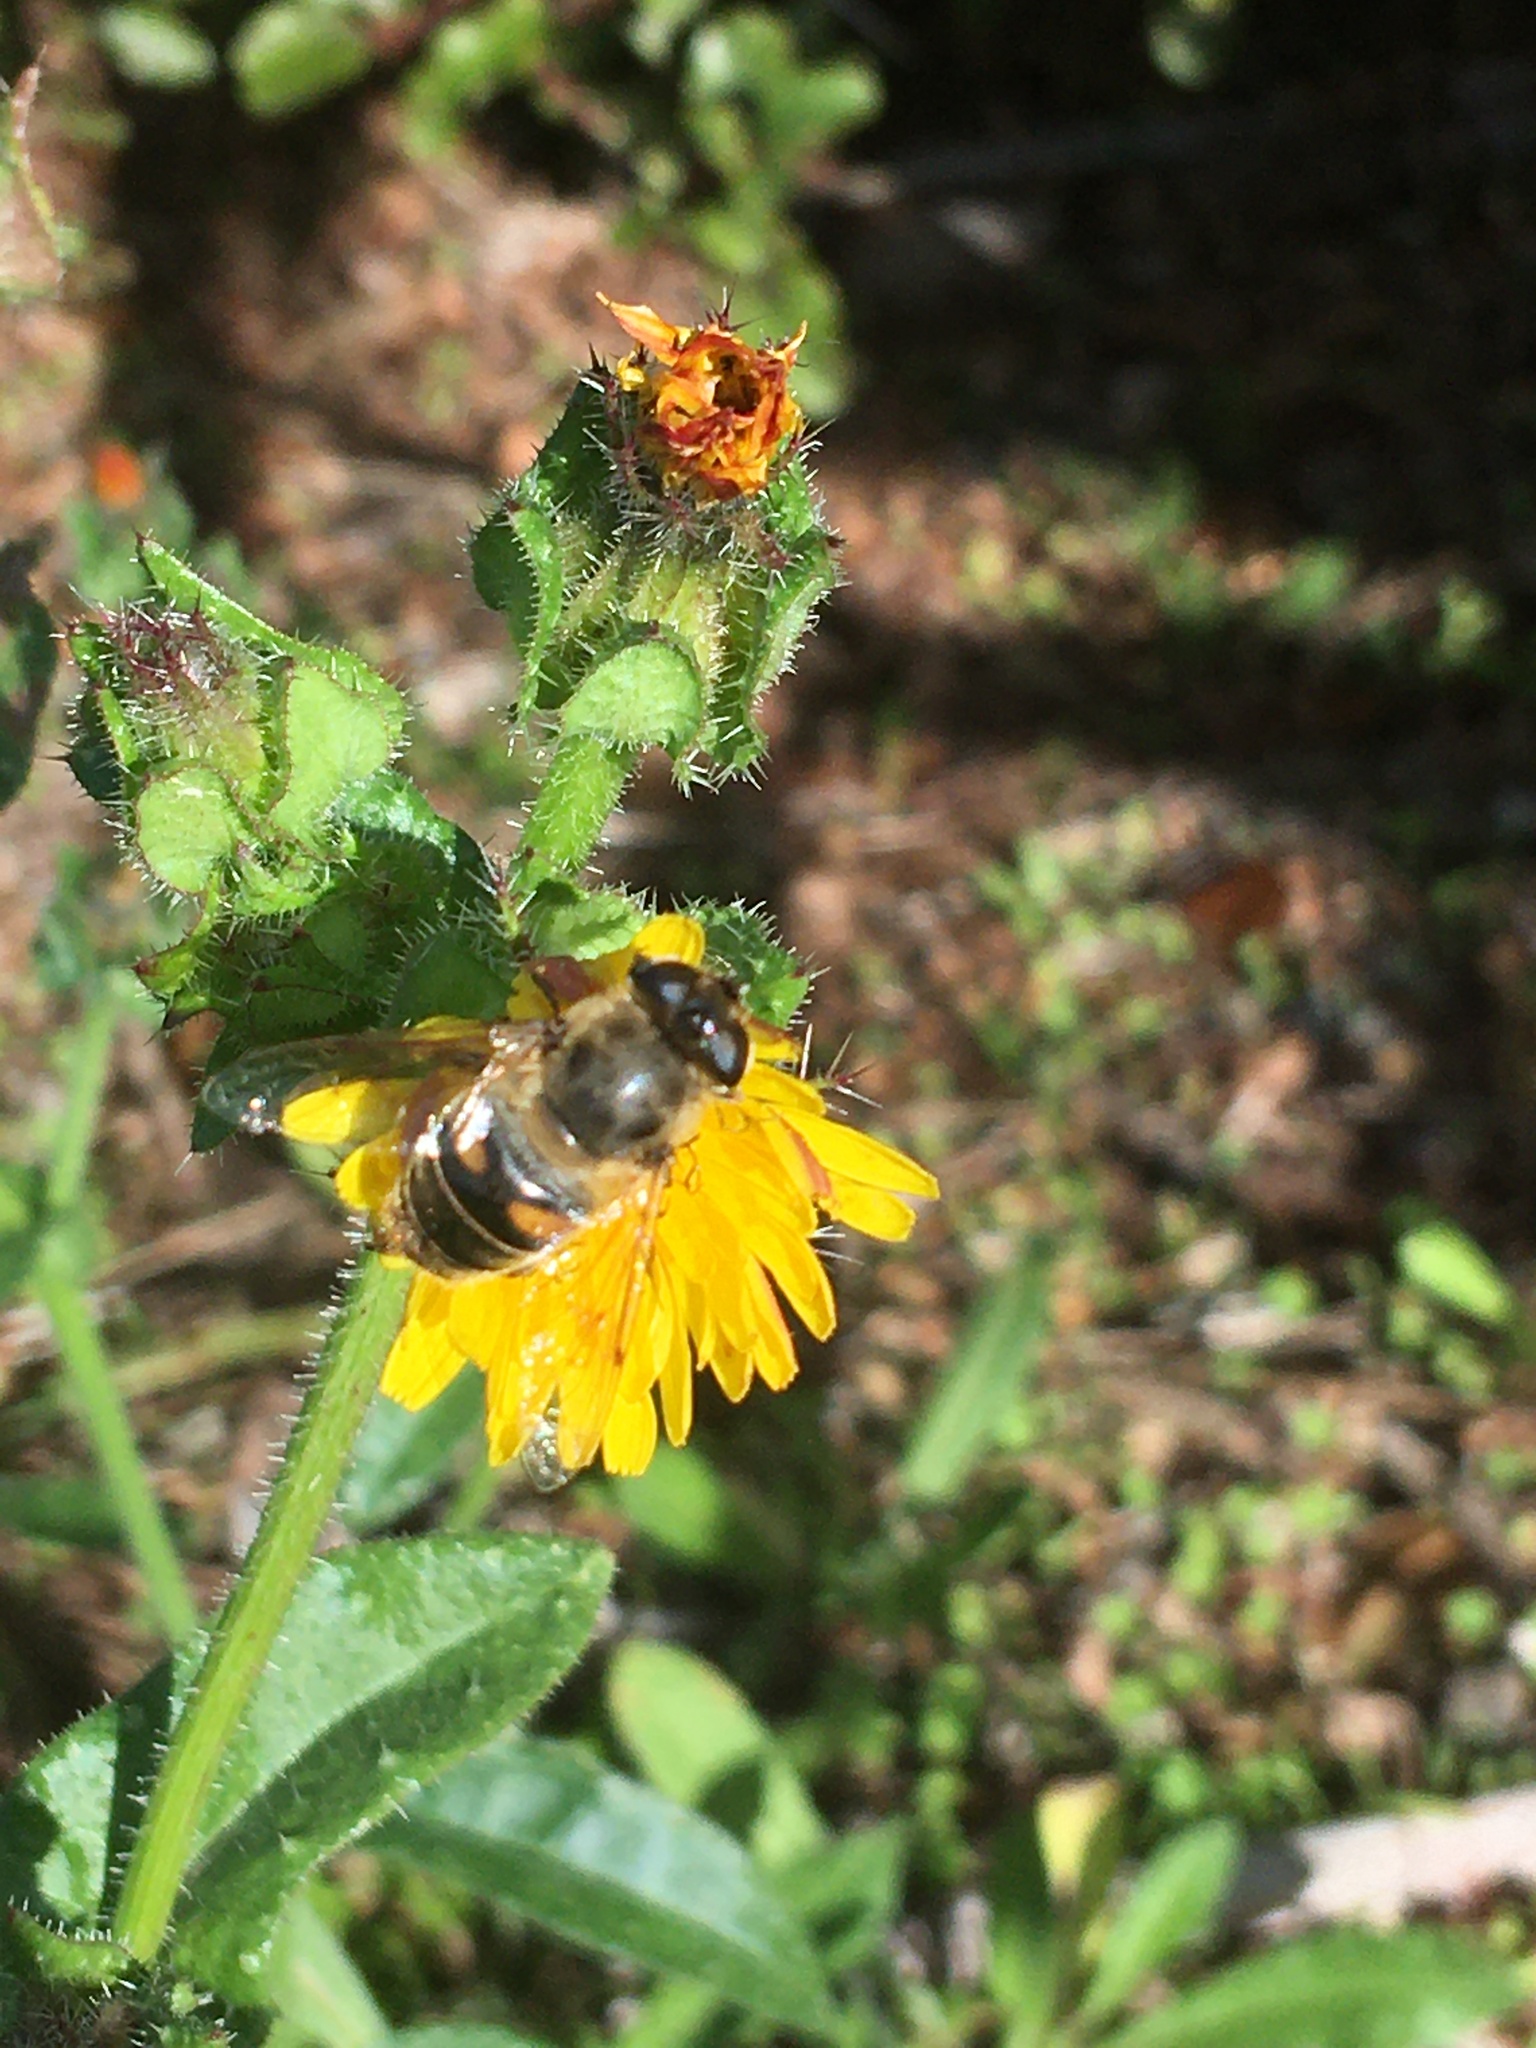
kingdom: Animalia
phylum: Arthropoda
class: Insecta
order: Diptera
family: Syrphidae
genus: Eristalis
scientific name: Eristalis tenax
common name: Drone fly
